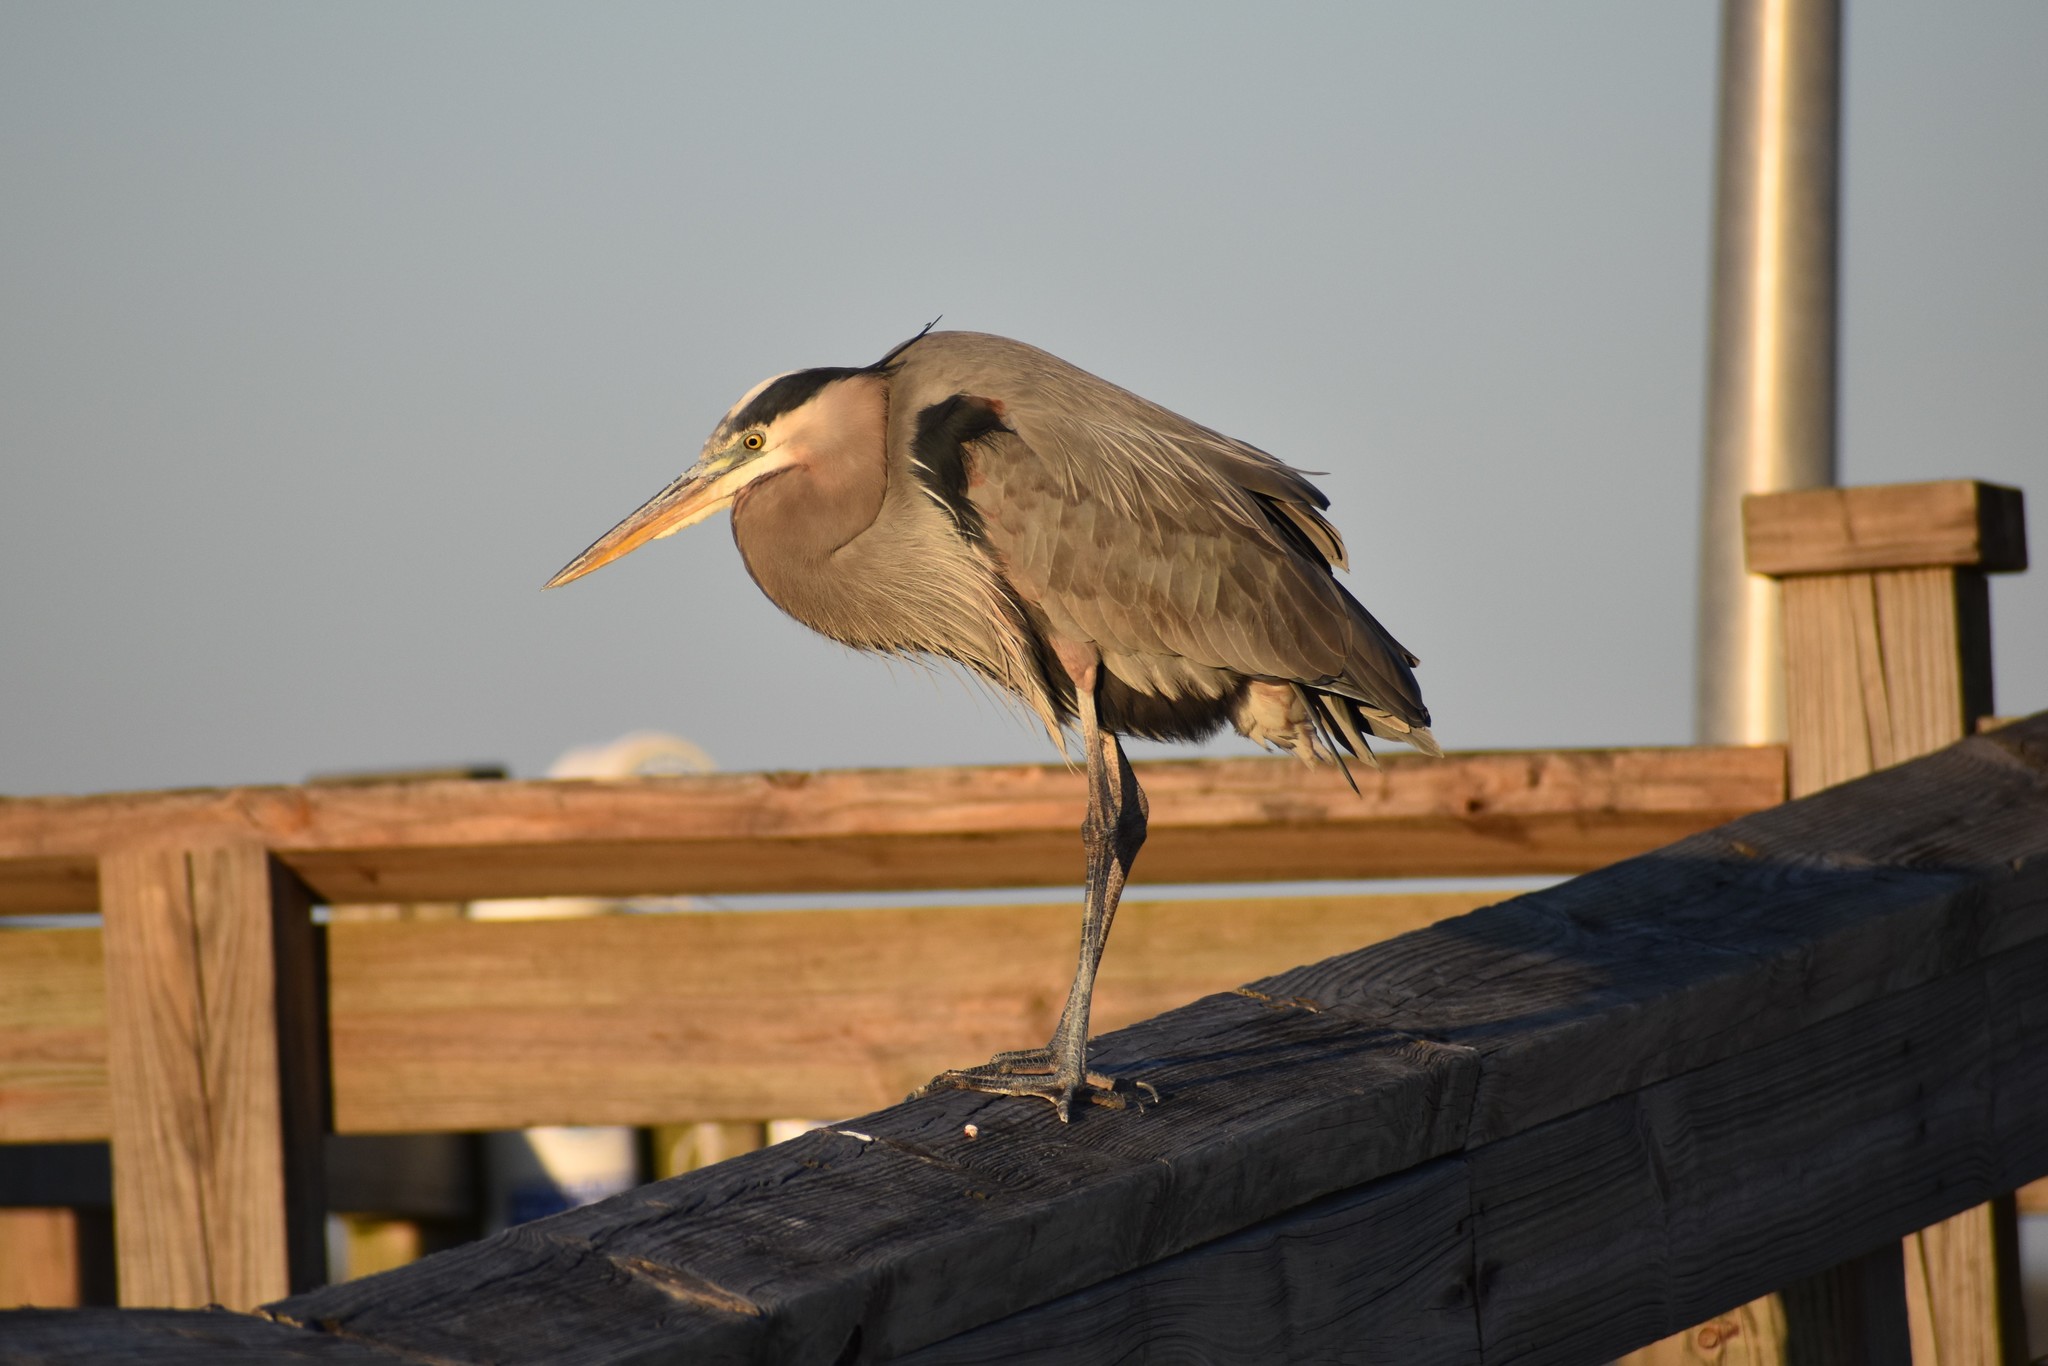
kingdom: Animalia
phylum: Chordata
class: Aves
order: Pelecaniformes
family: Ardeidae
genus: Ardea
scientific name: Ardea herodias
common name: Great blue heron
